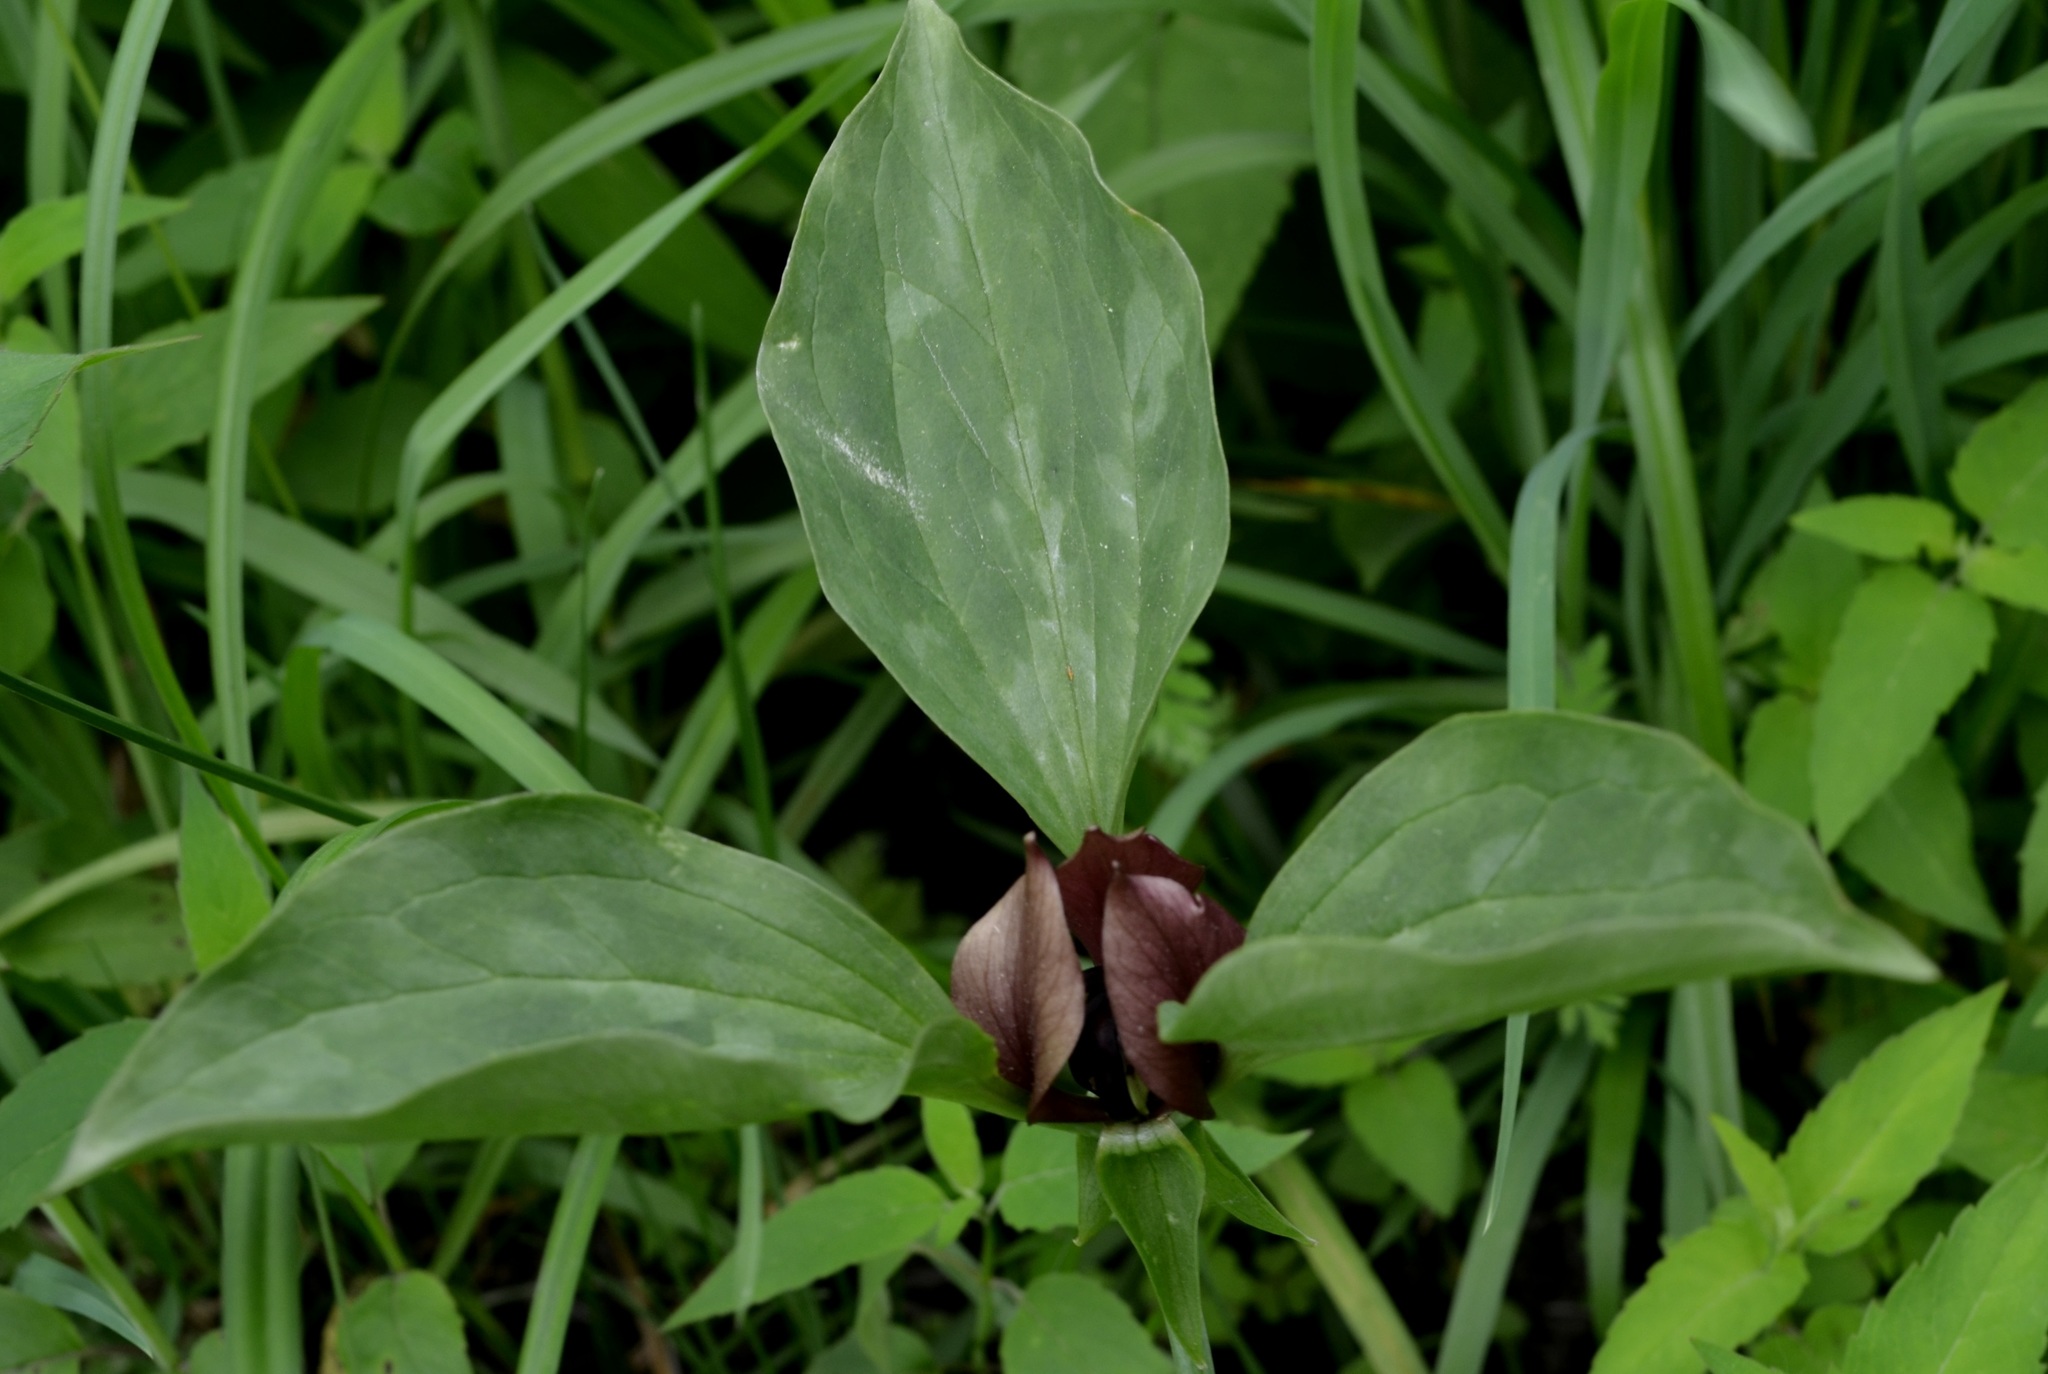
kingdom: Plantae
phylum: Tracheophyta
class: Liliopsida
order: Liliales
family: Melanthiaceae
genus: Trillium
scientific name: Trillium recurvatum
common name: Bloody butcher
